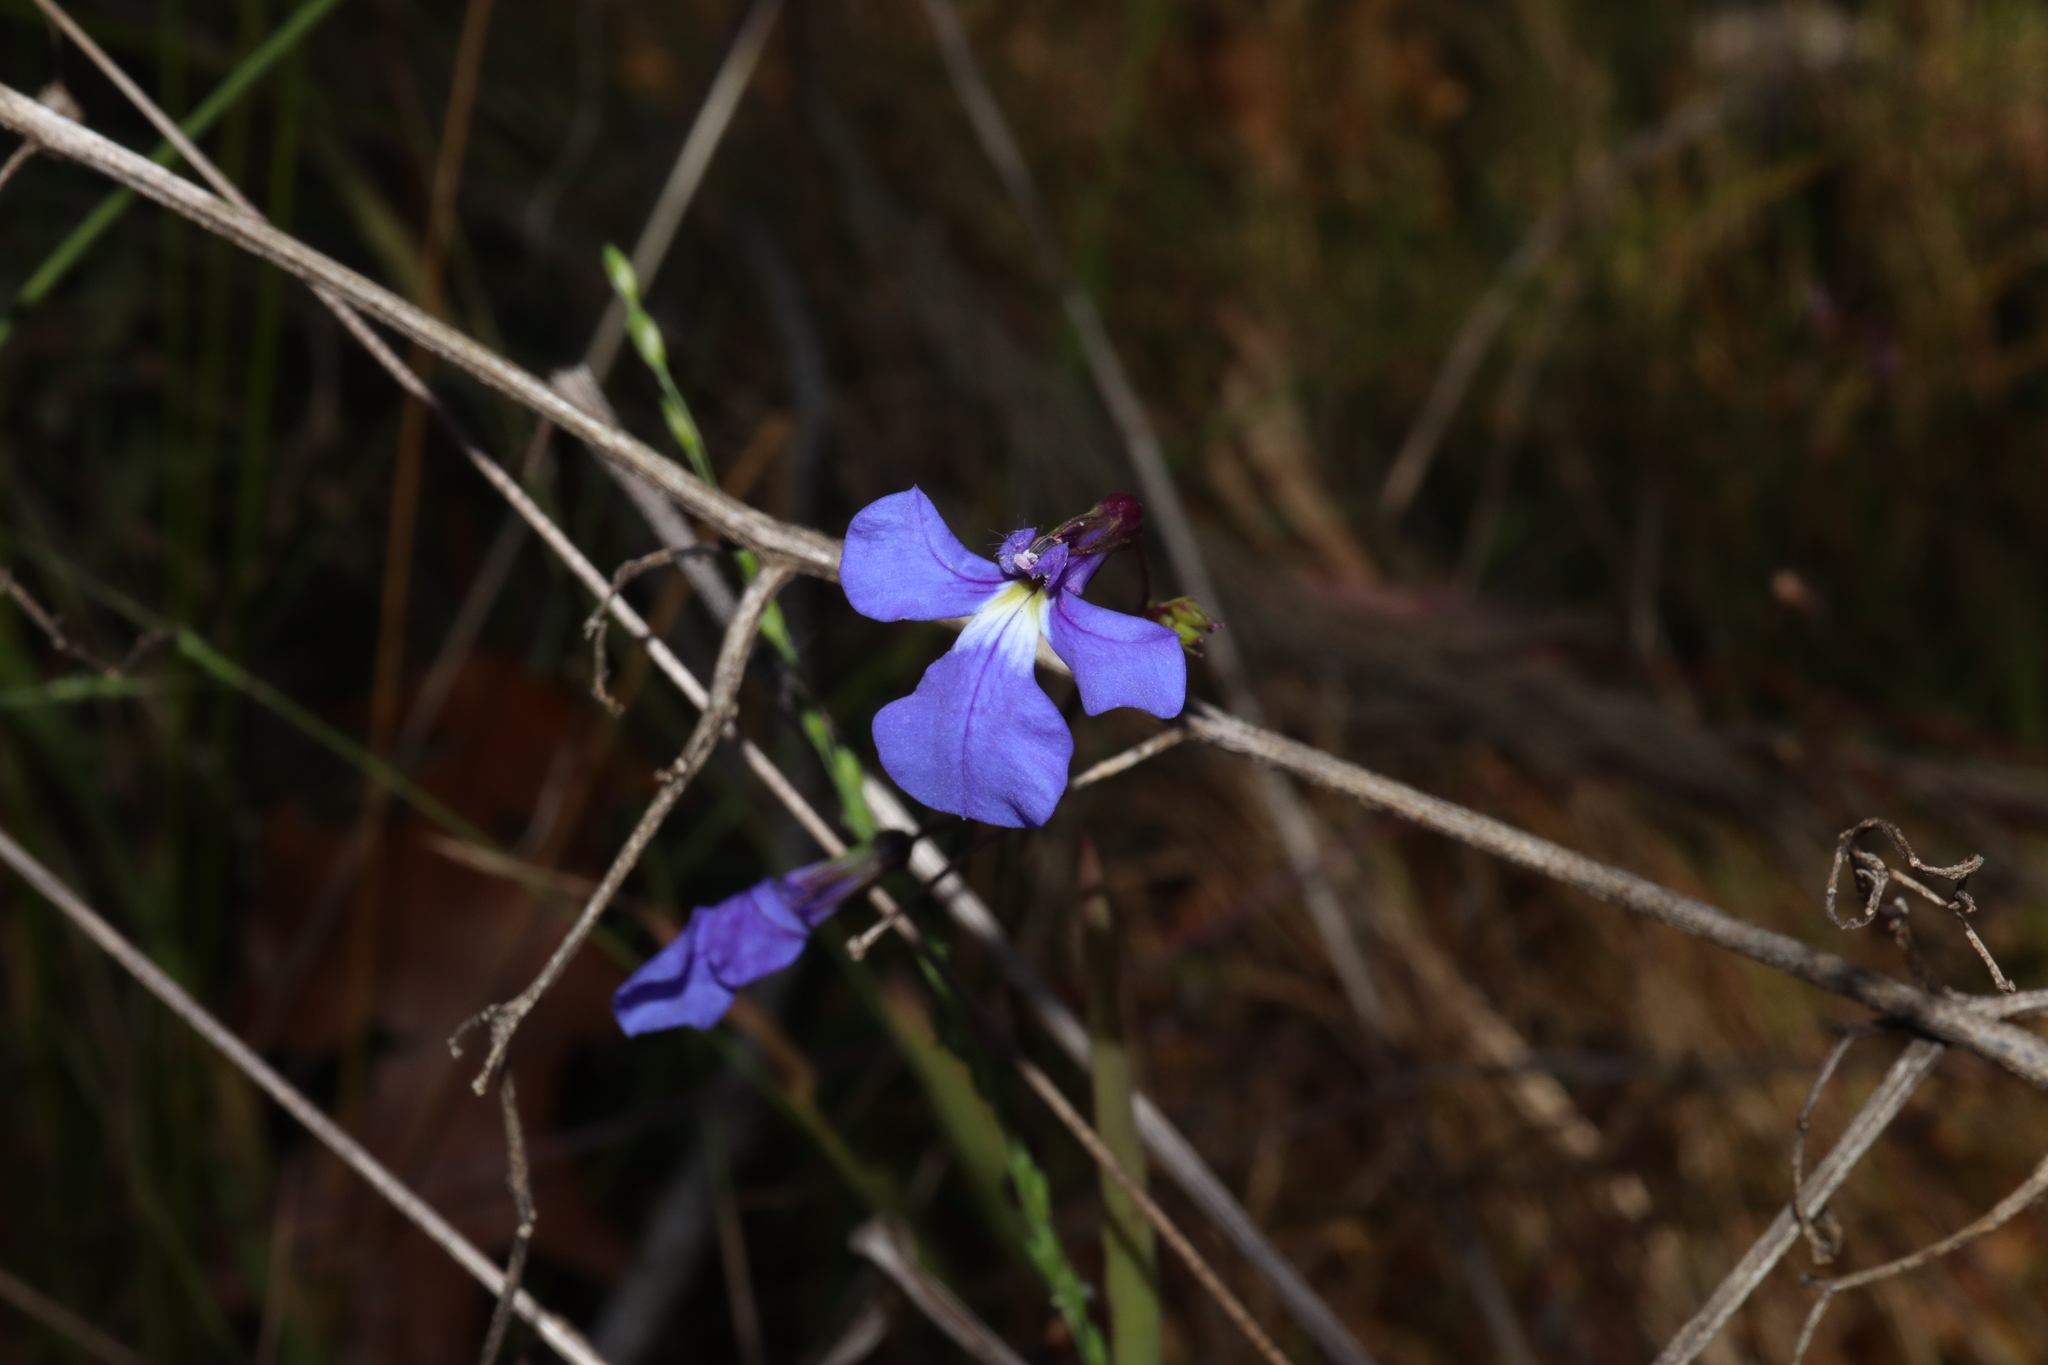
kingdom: Plantae
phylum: Tracheophyta
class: Magnoliopsida
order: Asterales
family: Campanulaceae
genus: Lobelia
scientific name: Lobelia andrewsii
